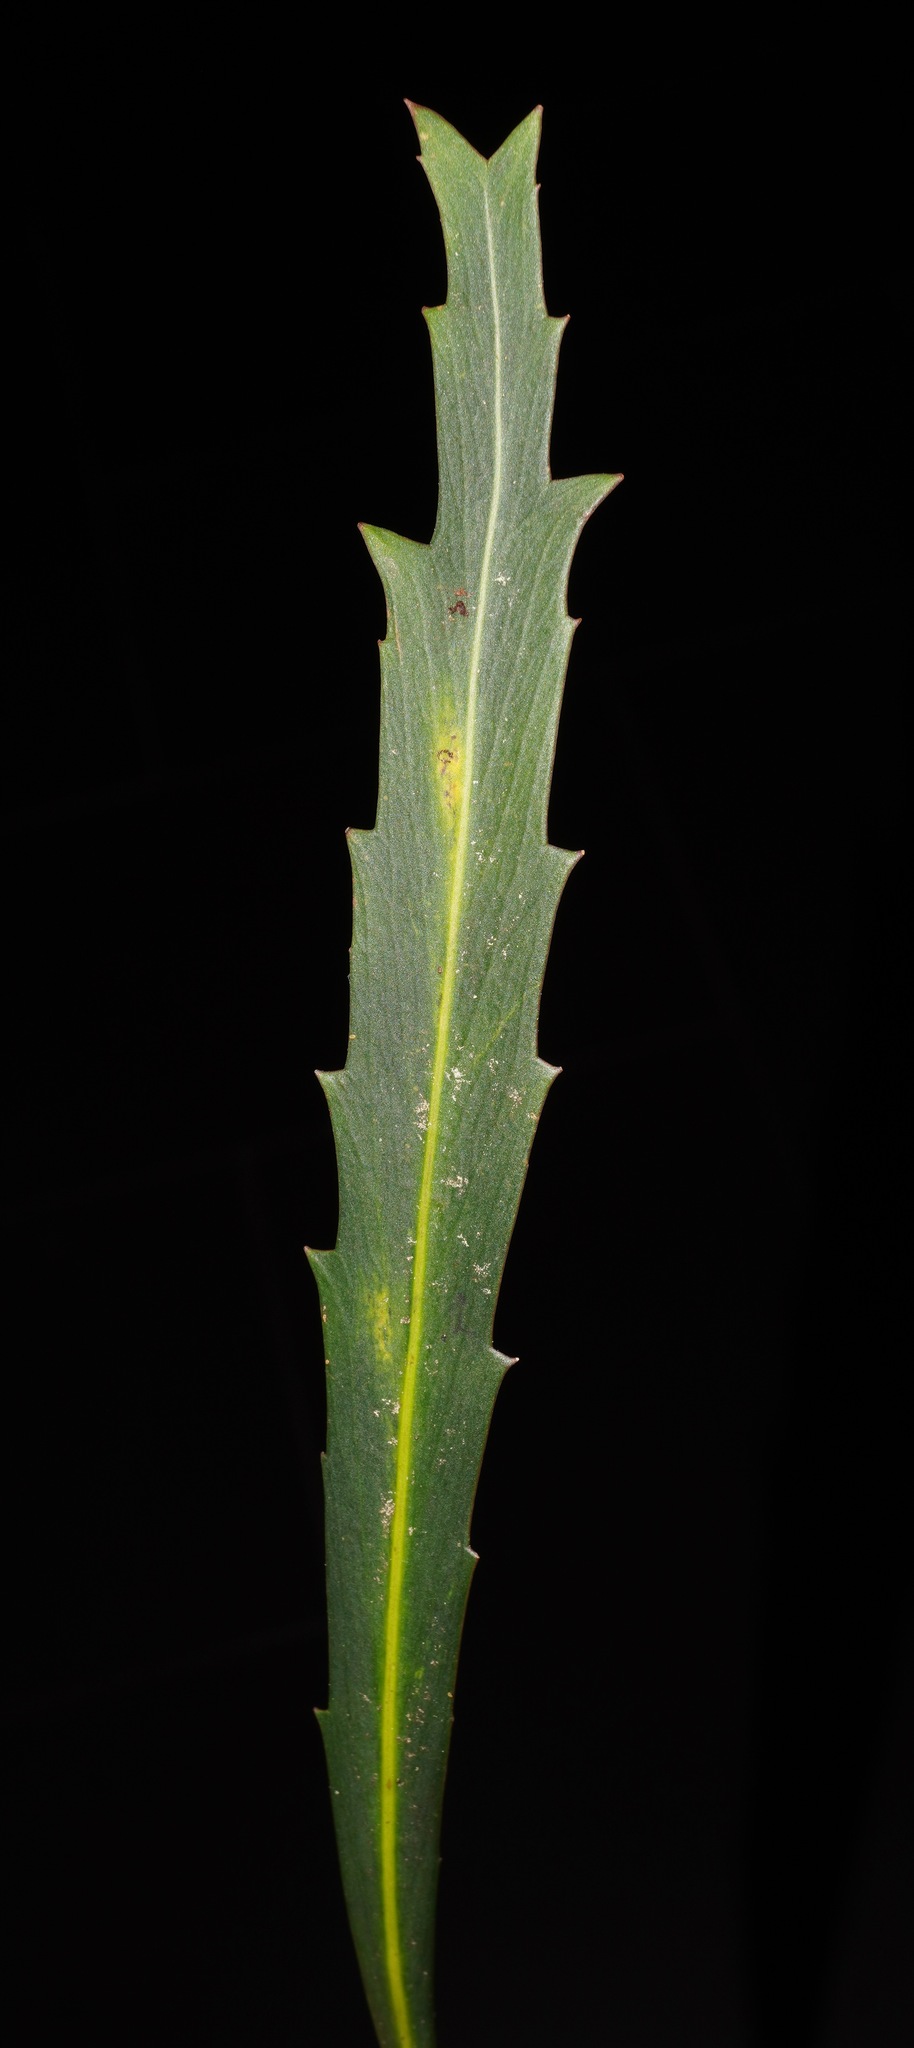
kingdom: Plantae
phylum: Tracheophyta
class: Magnoliopsida
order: Apiales
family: Araliaceae
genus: Pseudopanax
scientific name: Pseudopanax crassifolius
